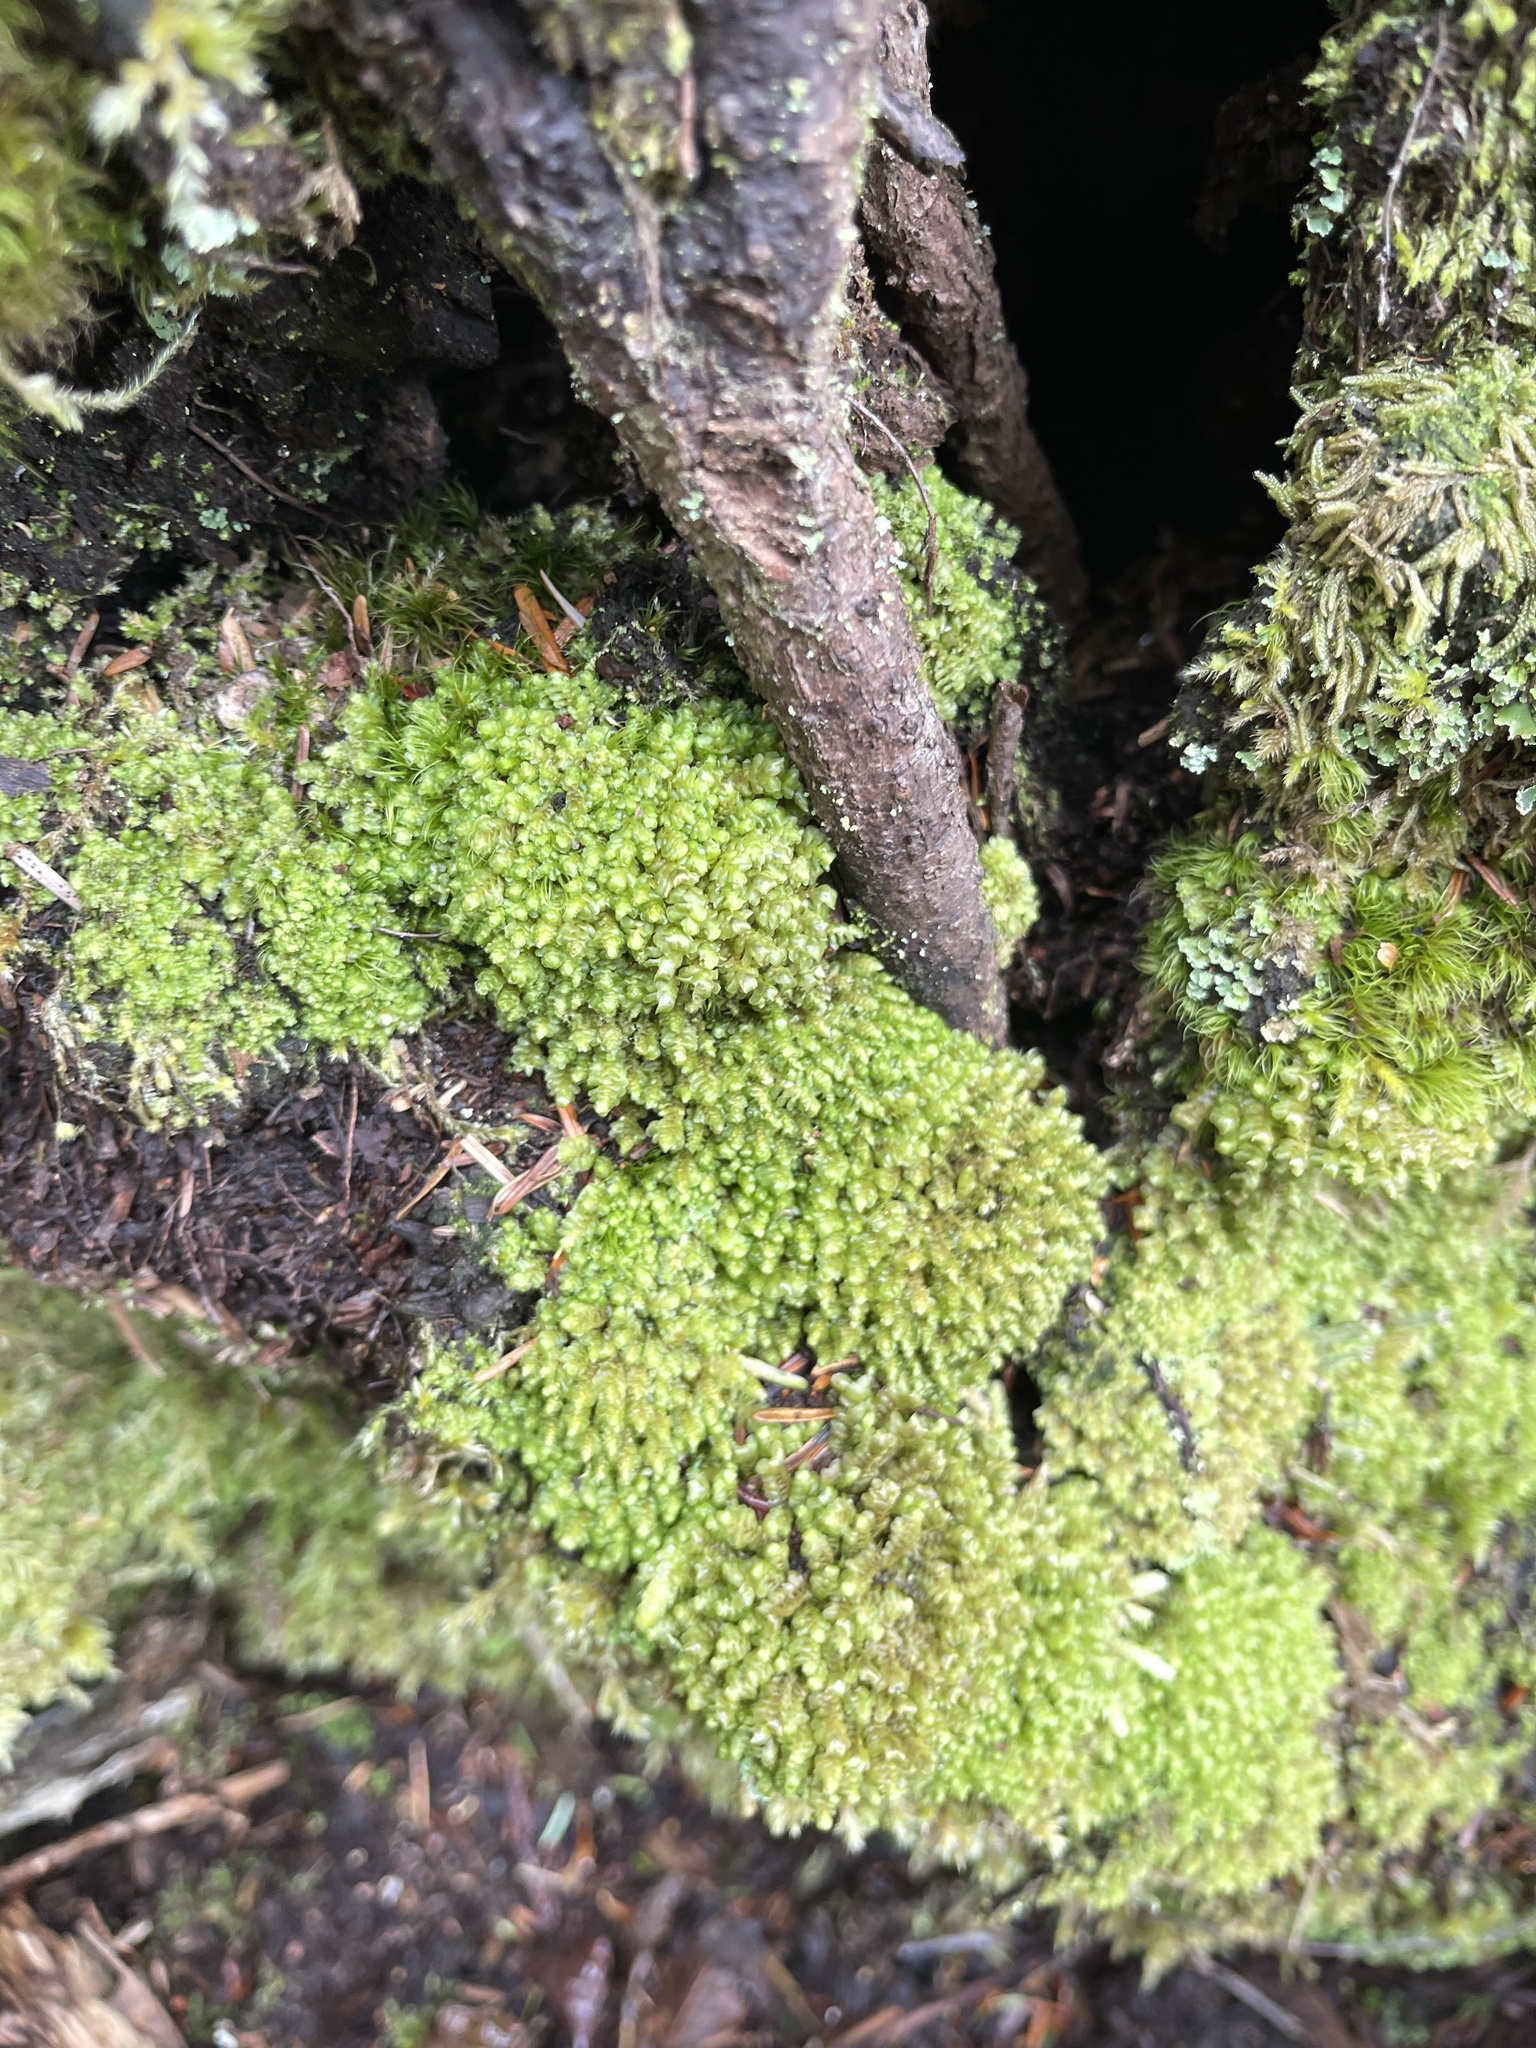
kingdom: Plantae
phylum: Marchantiophyta
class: Jungermanniopsida
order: Jungermanniales
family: Scapaniaceae
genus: Scapania
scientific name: Scapania bolanderi
